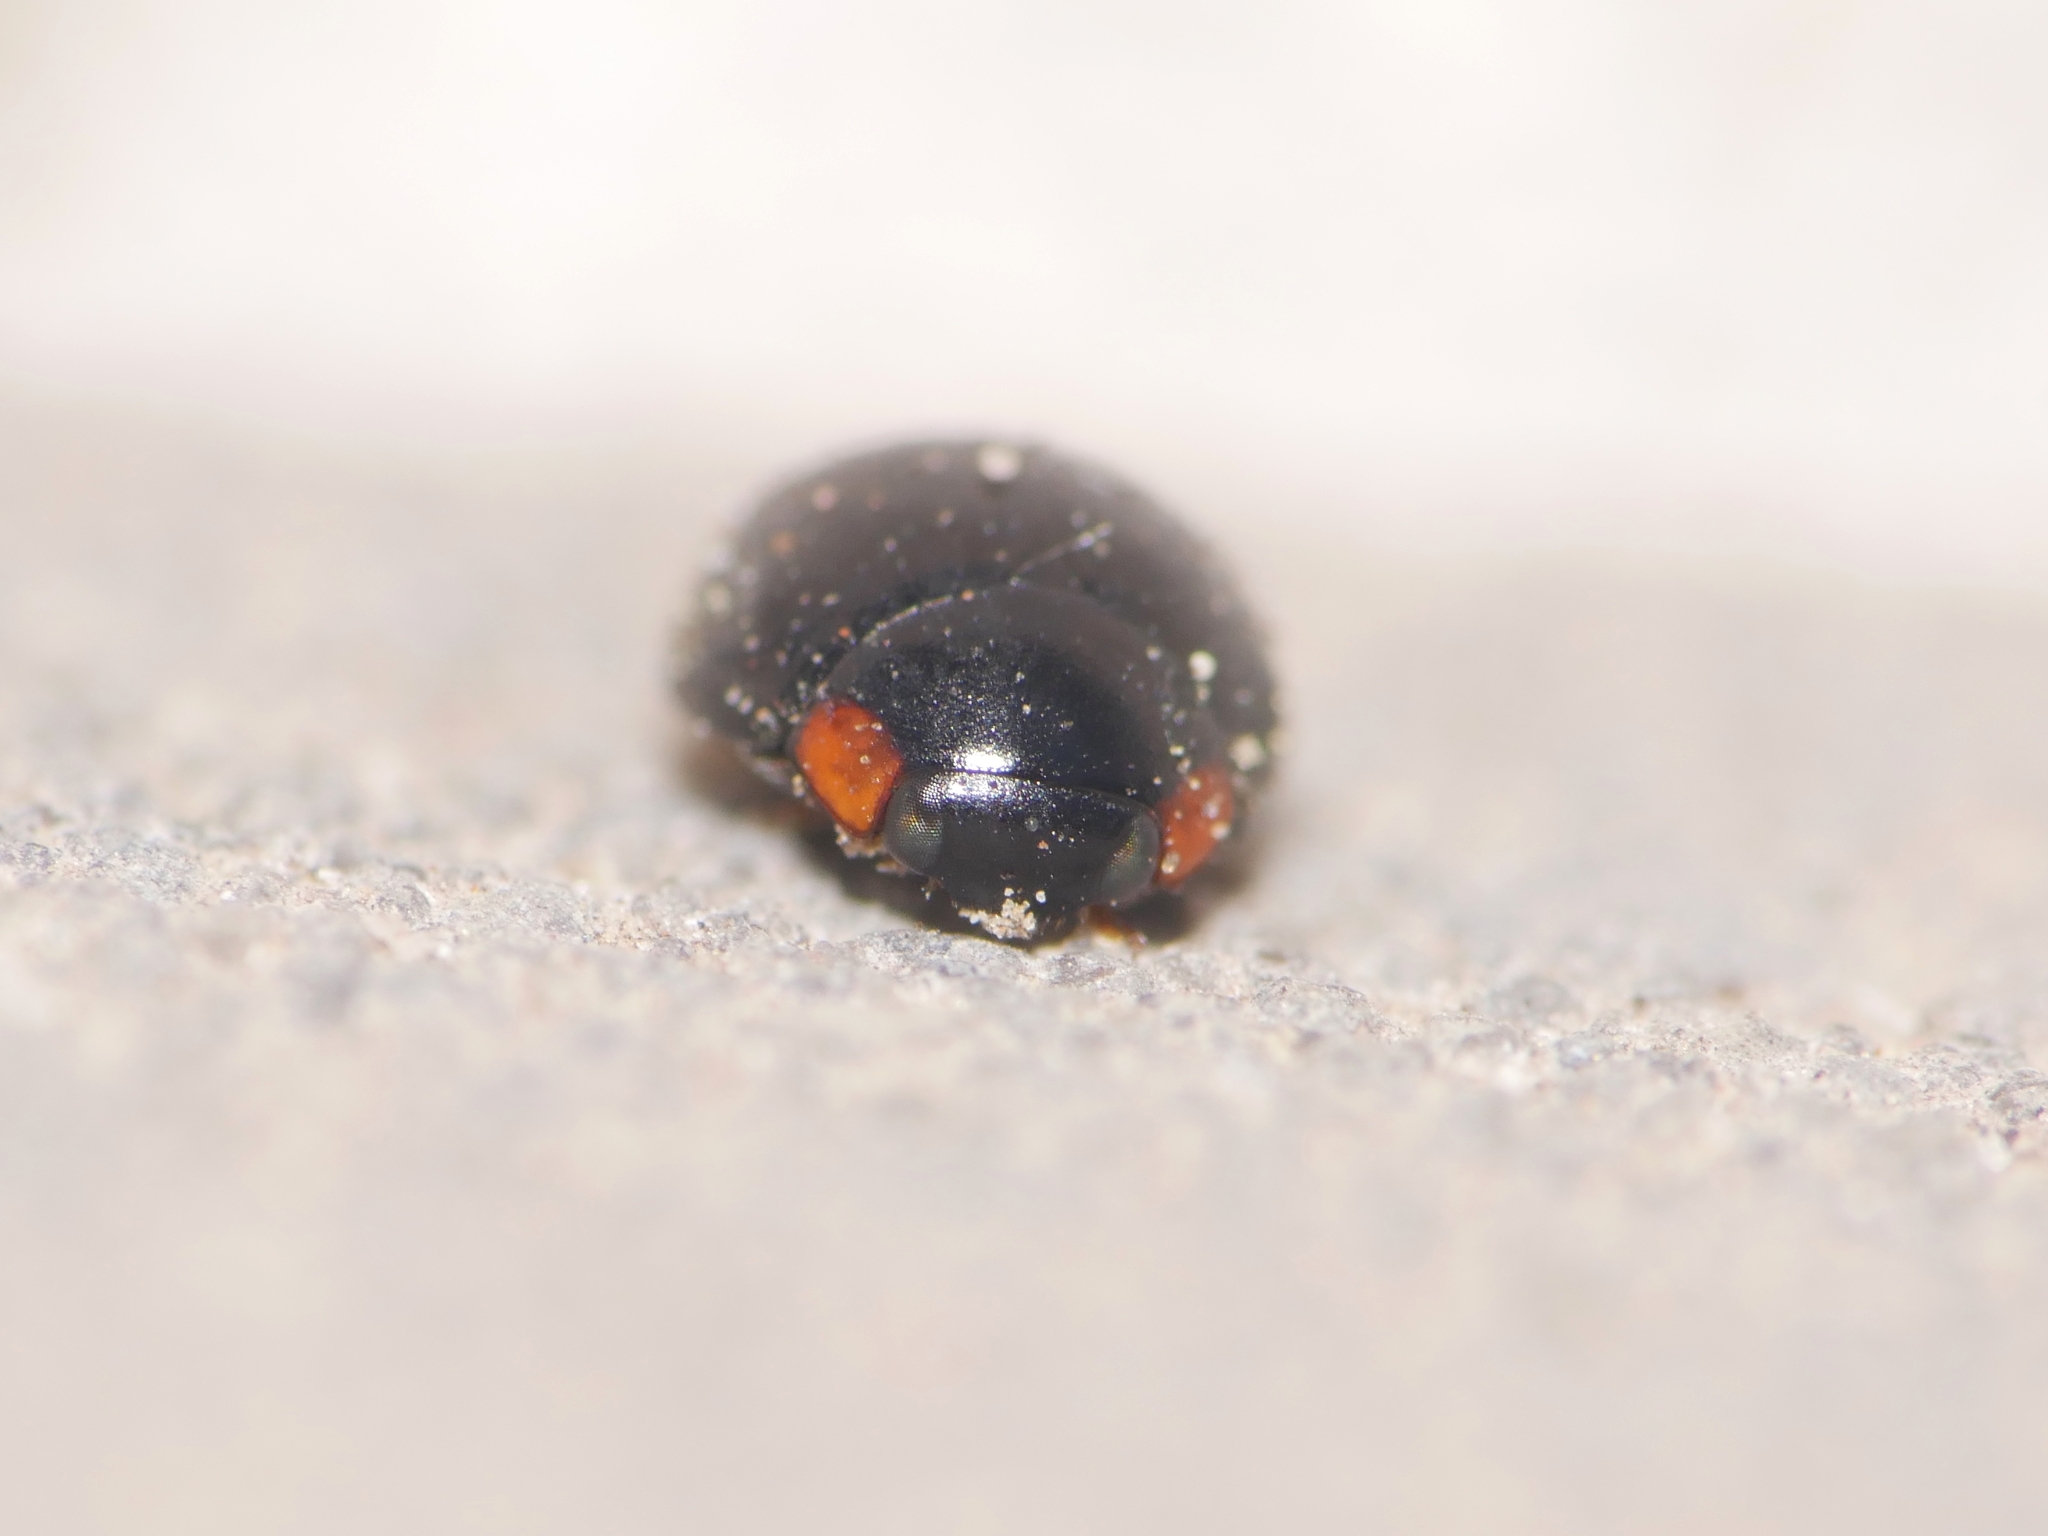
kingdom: Animalia
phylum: Arthropoda
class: Insecta
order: Coleoptera
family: Coccinellidae
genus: Hyperaspis
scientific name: Hyperaspis campestris
